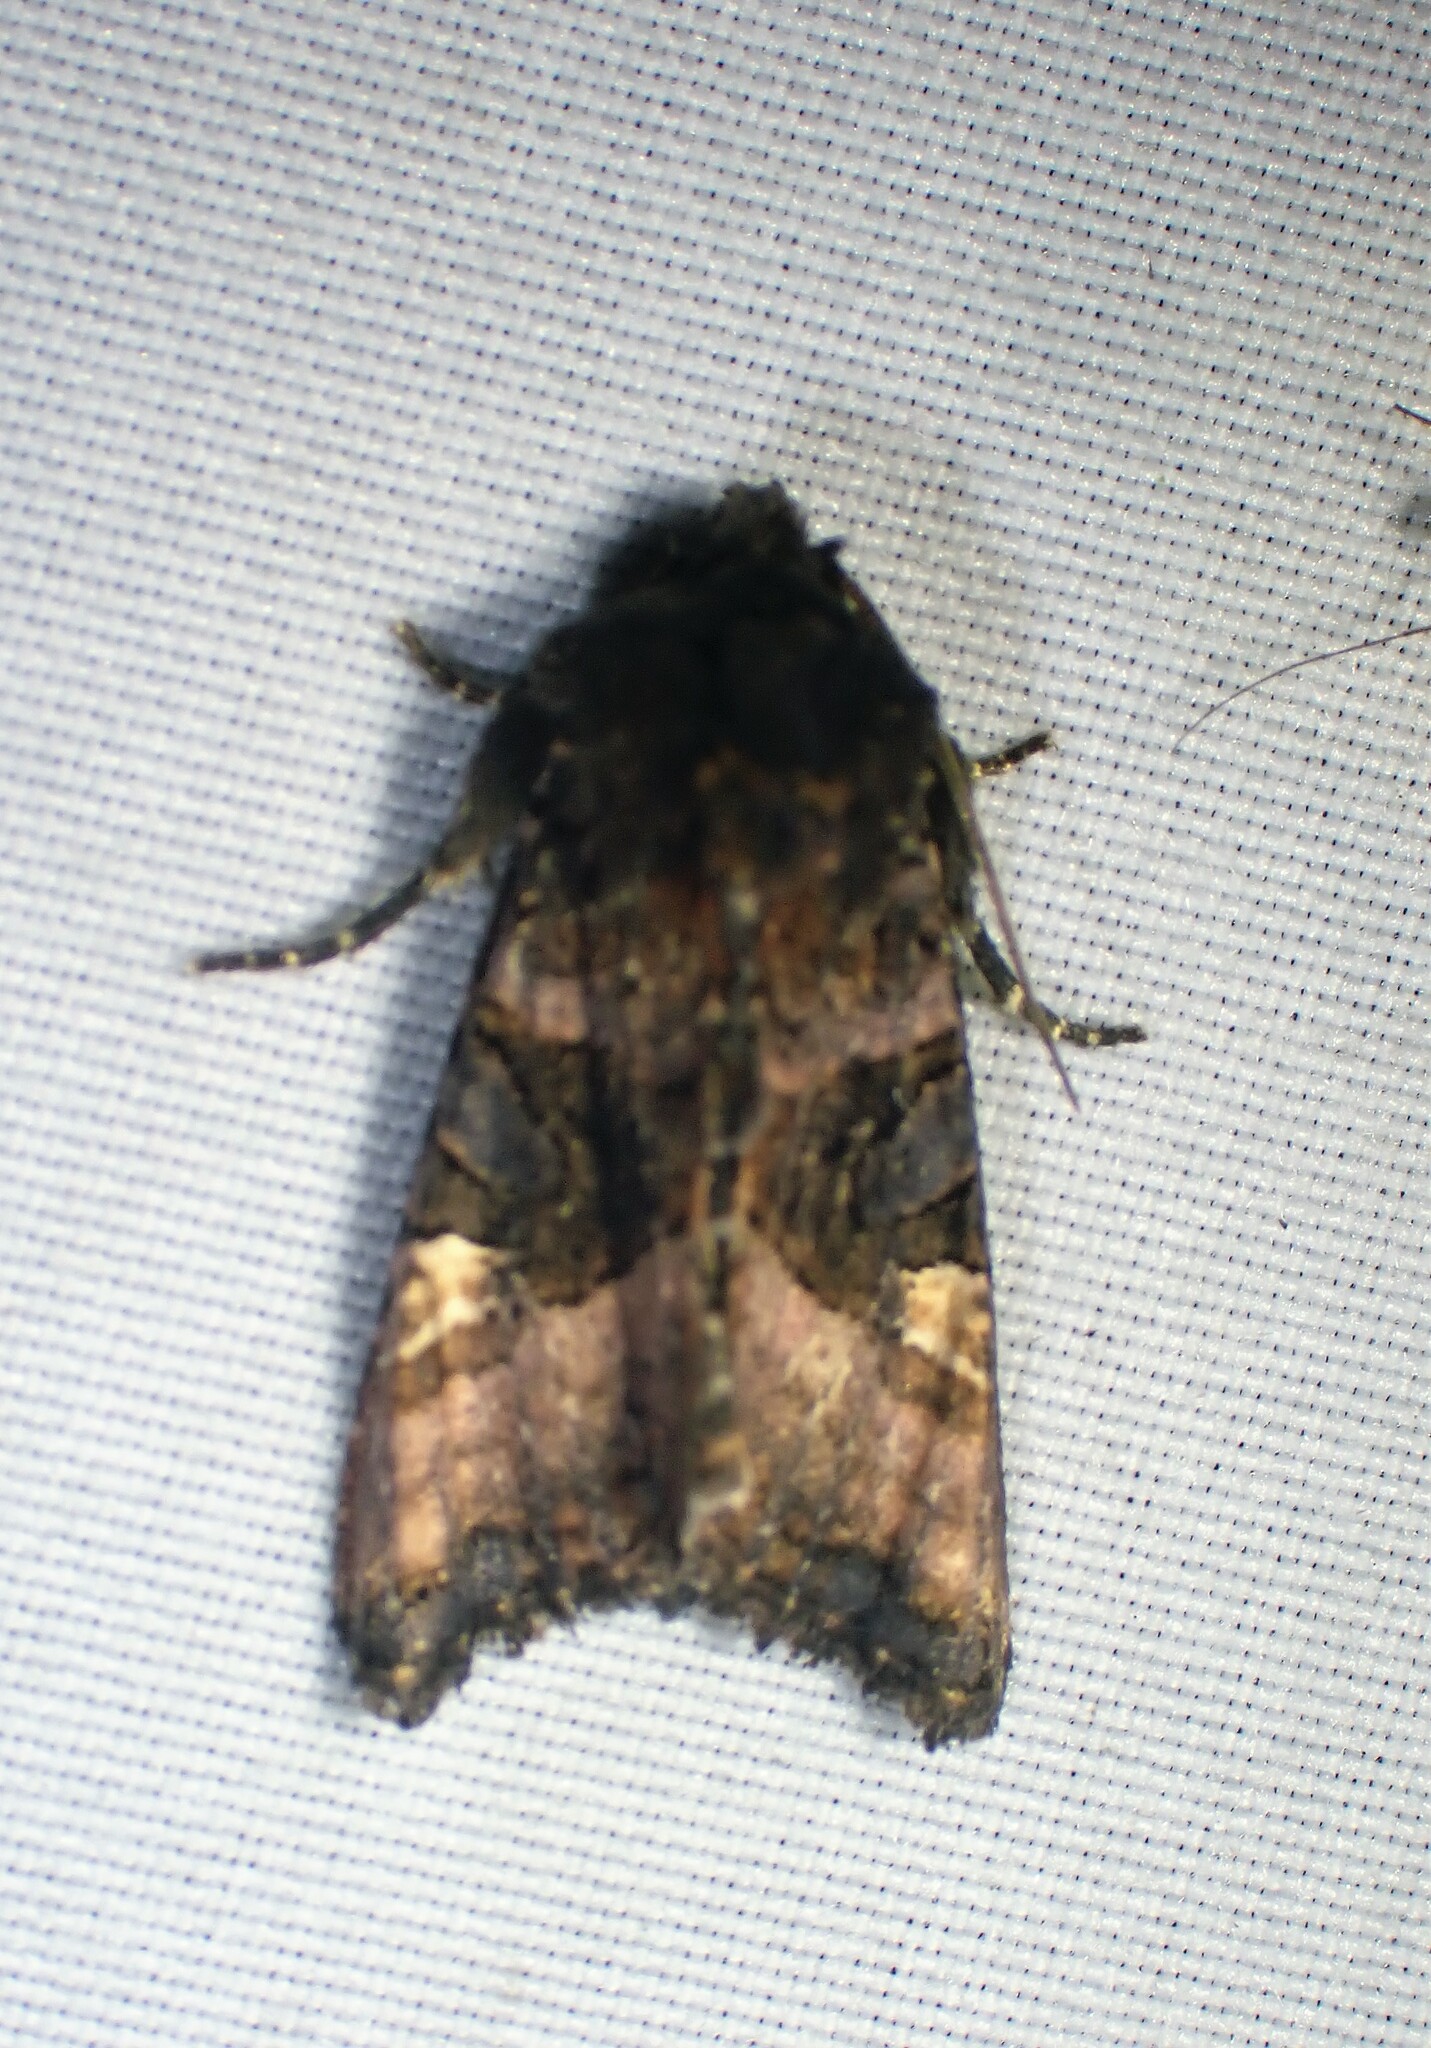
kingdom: Animalia
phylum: Arthropoda
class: Insecta
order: Lepidoptera
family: Noctuidae
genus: Euplexia
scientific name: Euplexia benesimilis
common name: American angle shades
